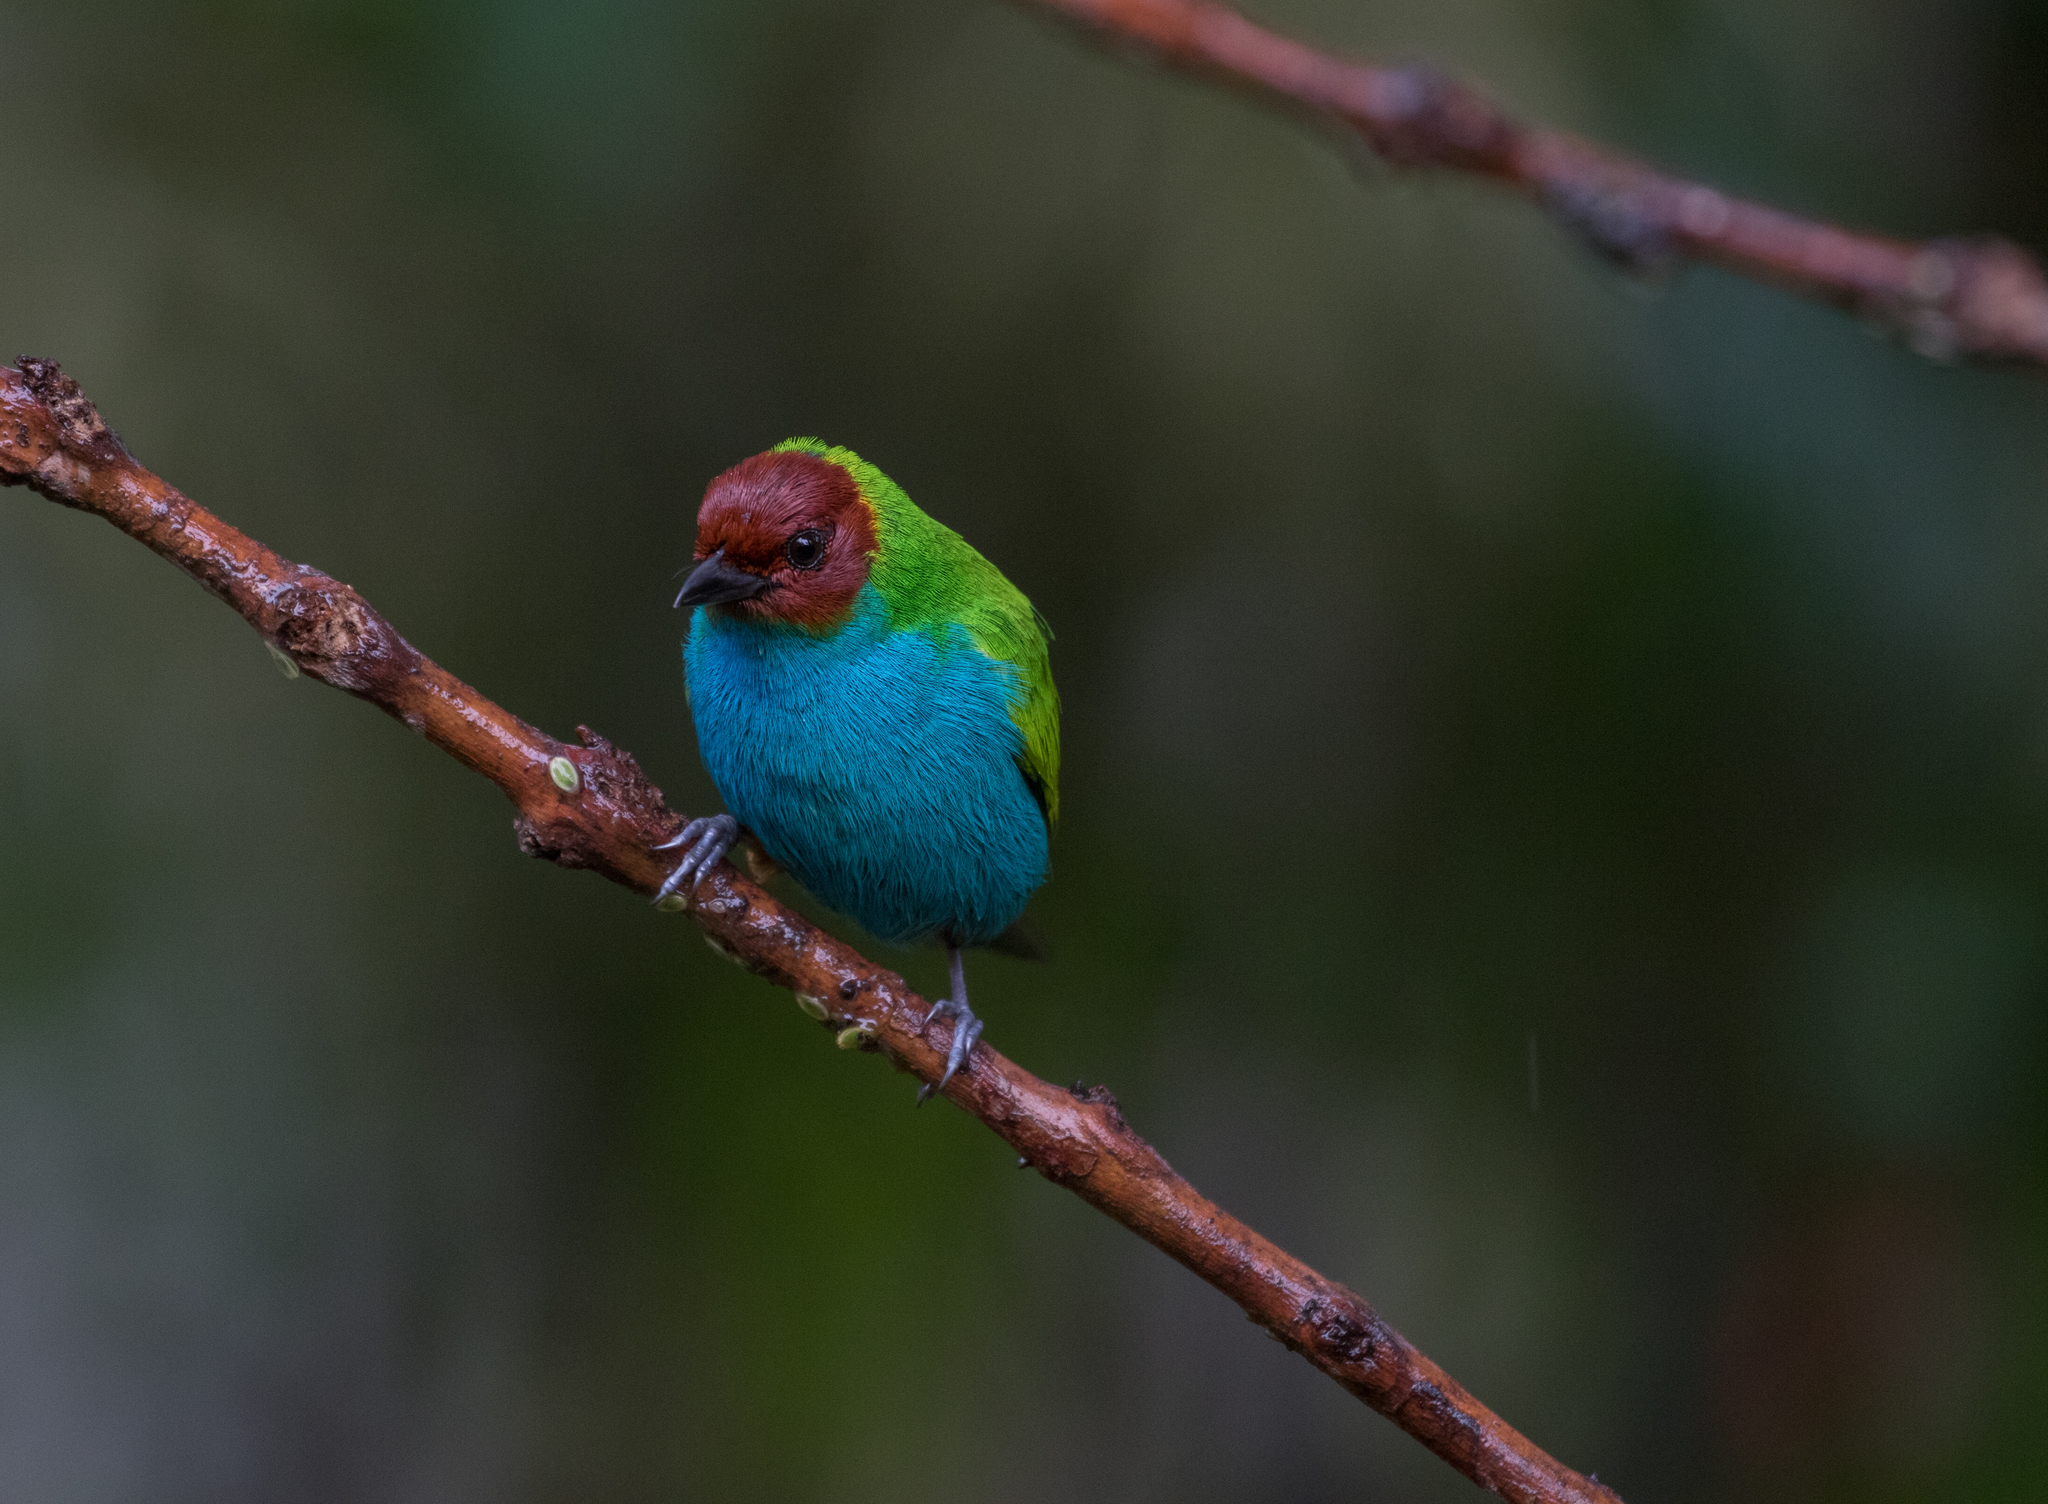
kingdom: Animalia
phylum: Chordata
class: Aves
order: Passeriformes
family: Thraupidae
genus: Tangara
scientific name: Tangara gyrola
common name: Bay-headed tanager
